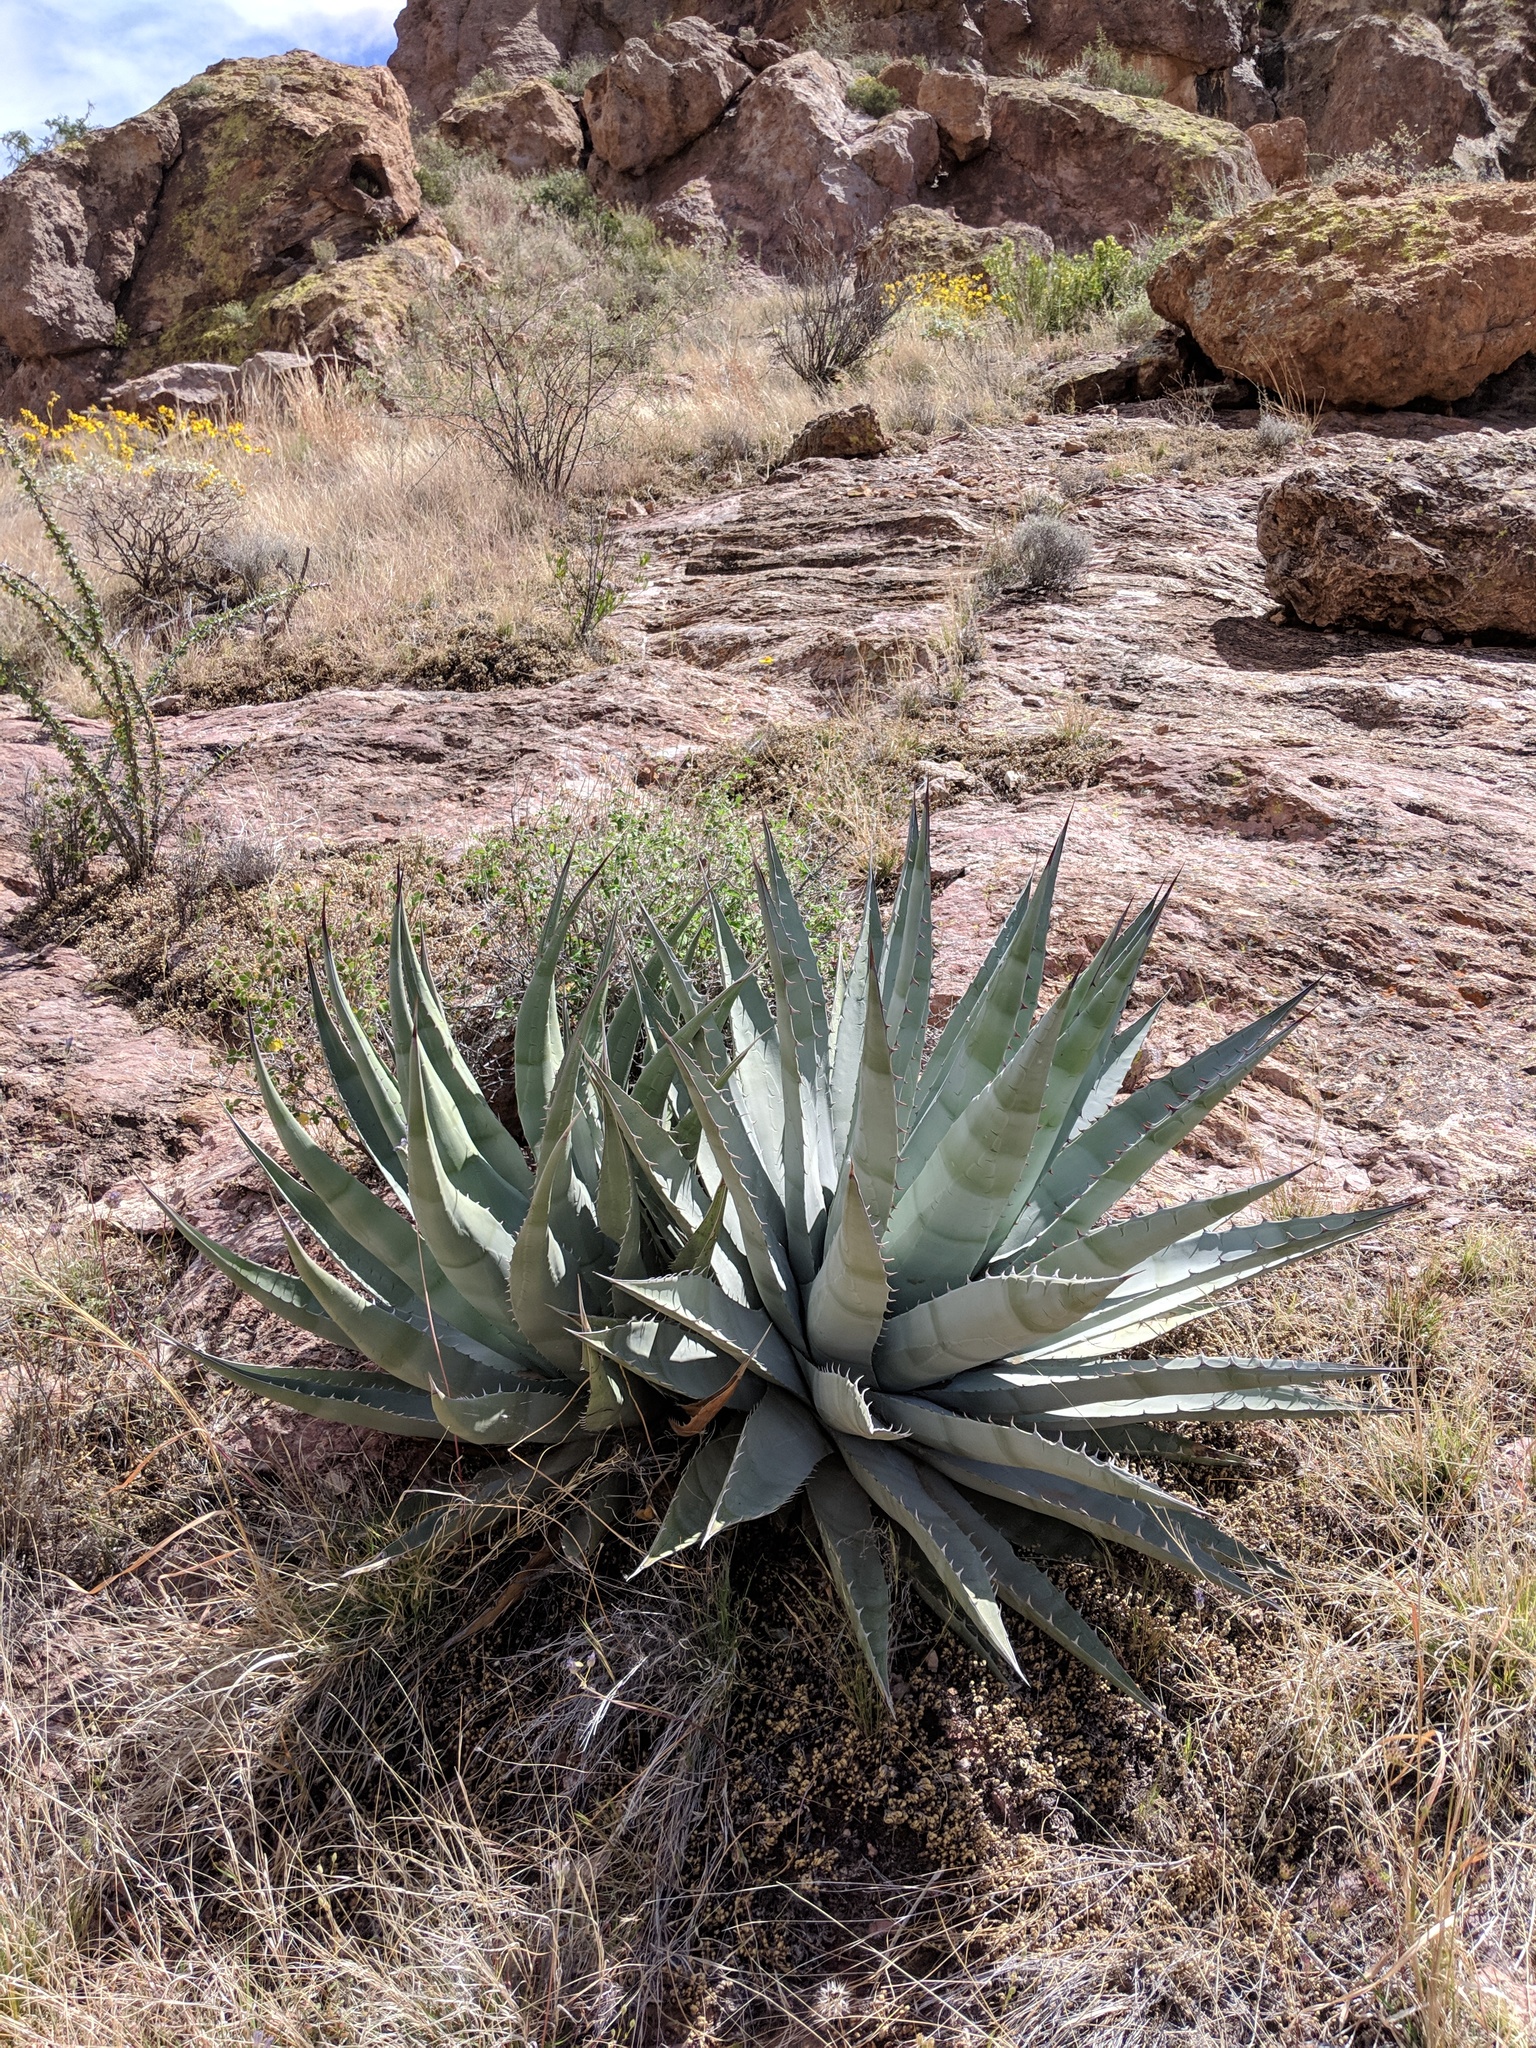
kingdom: Plantae
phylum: Tracheophyta
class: Liliopsida
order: Asparagales
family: Asparagaceae
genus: Agave
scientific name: Agave simplex
